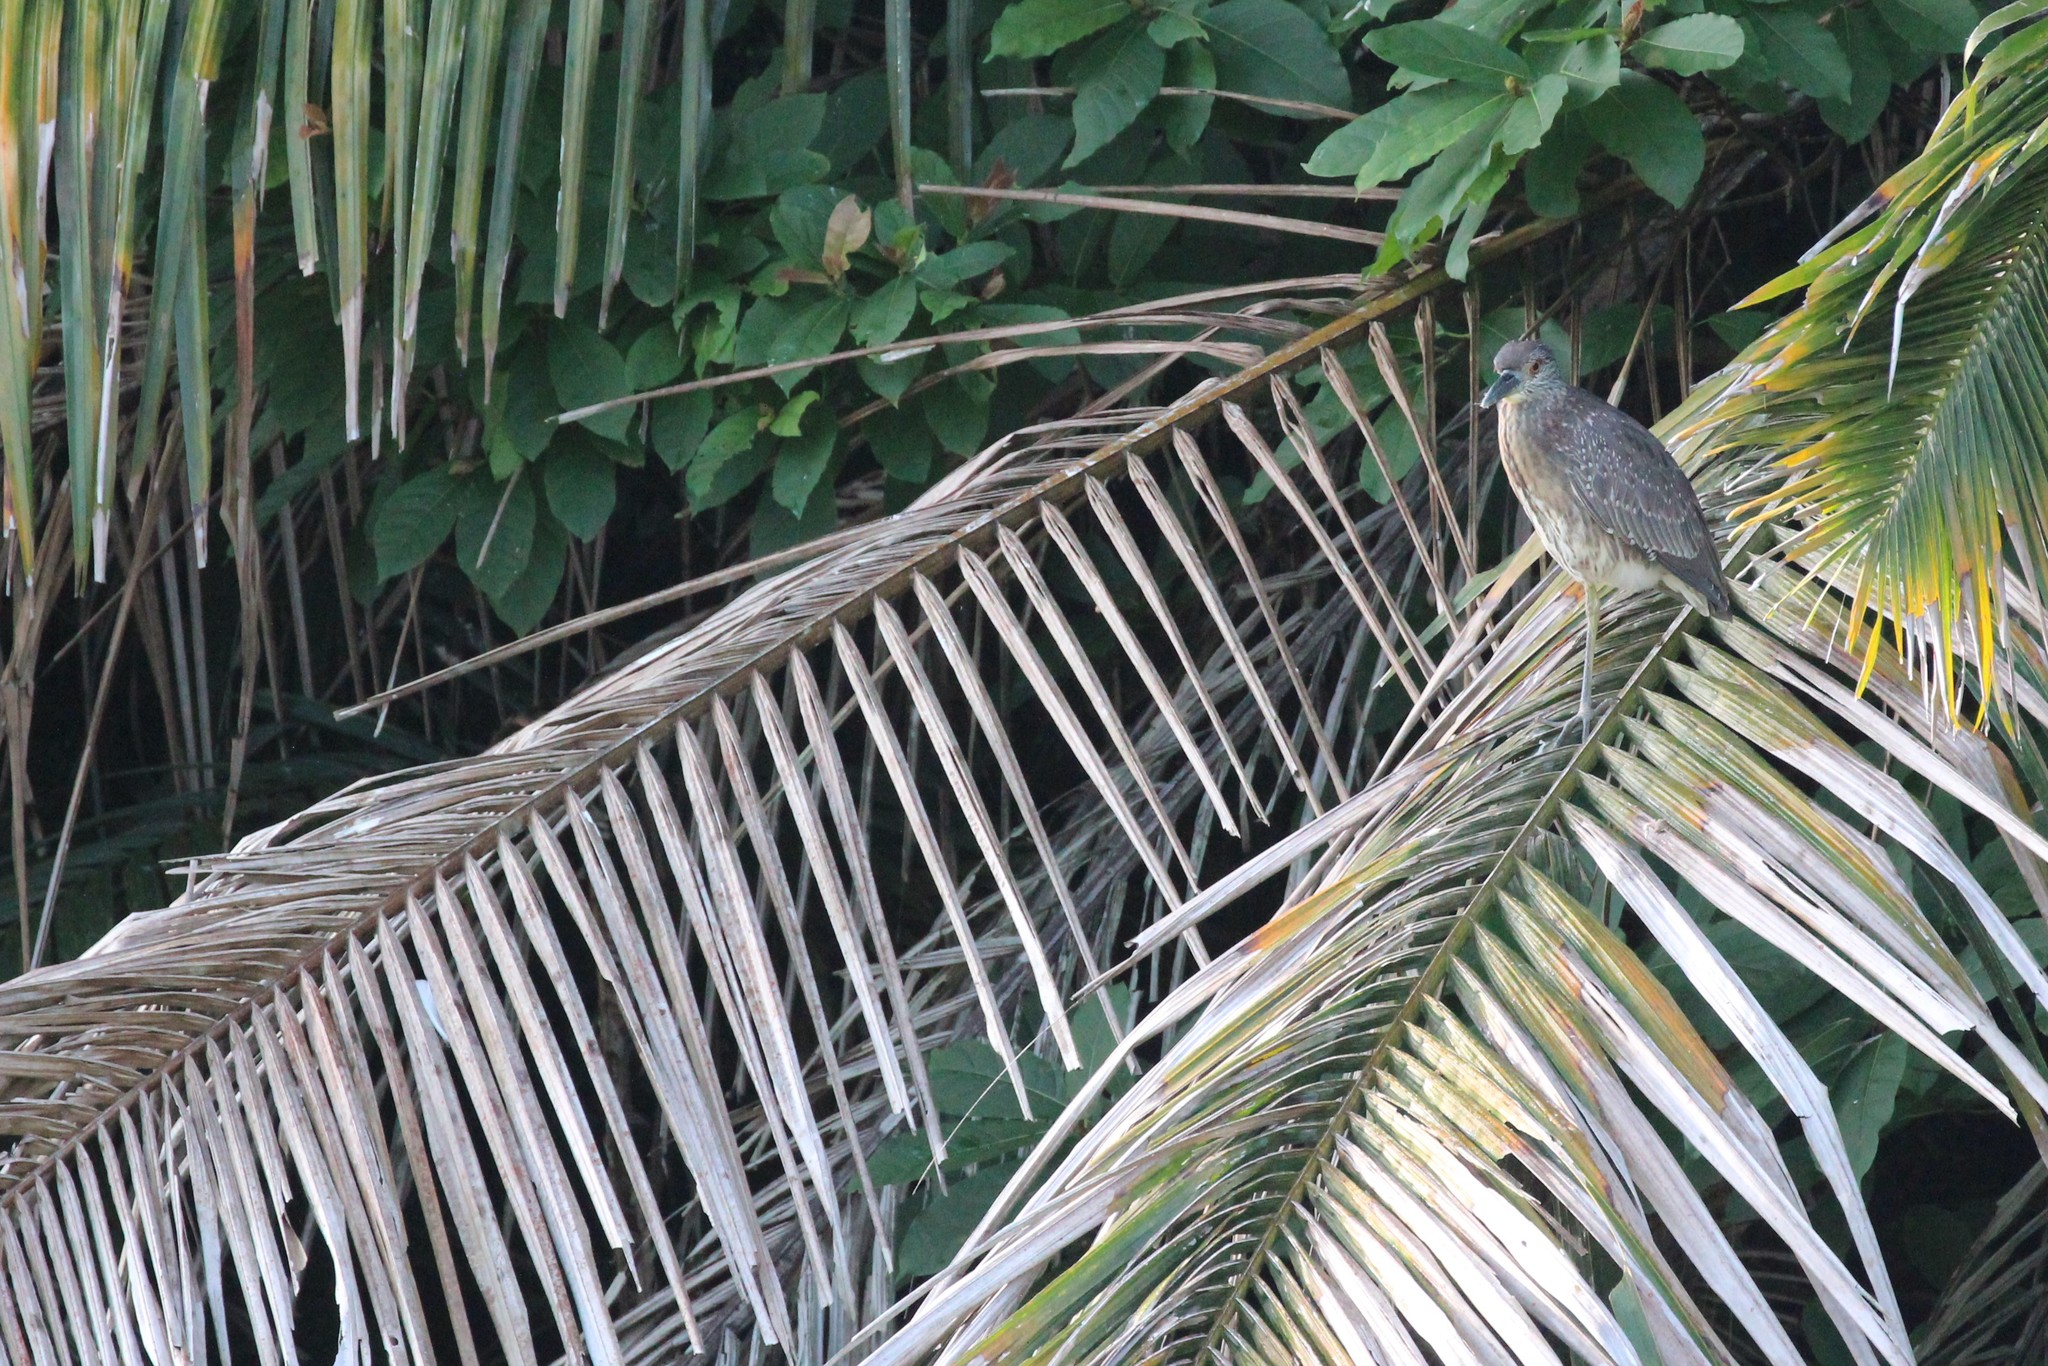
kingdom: Animalia
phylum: Chordata
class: Aves
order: Pelecaniformes
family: Ardeidae
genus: Nyctanassa
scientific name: Nyctanassa violacea
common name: Yellow-crowned night heron
